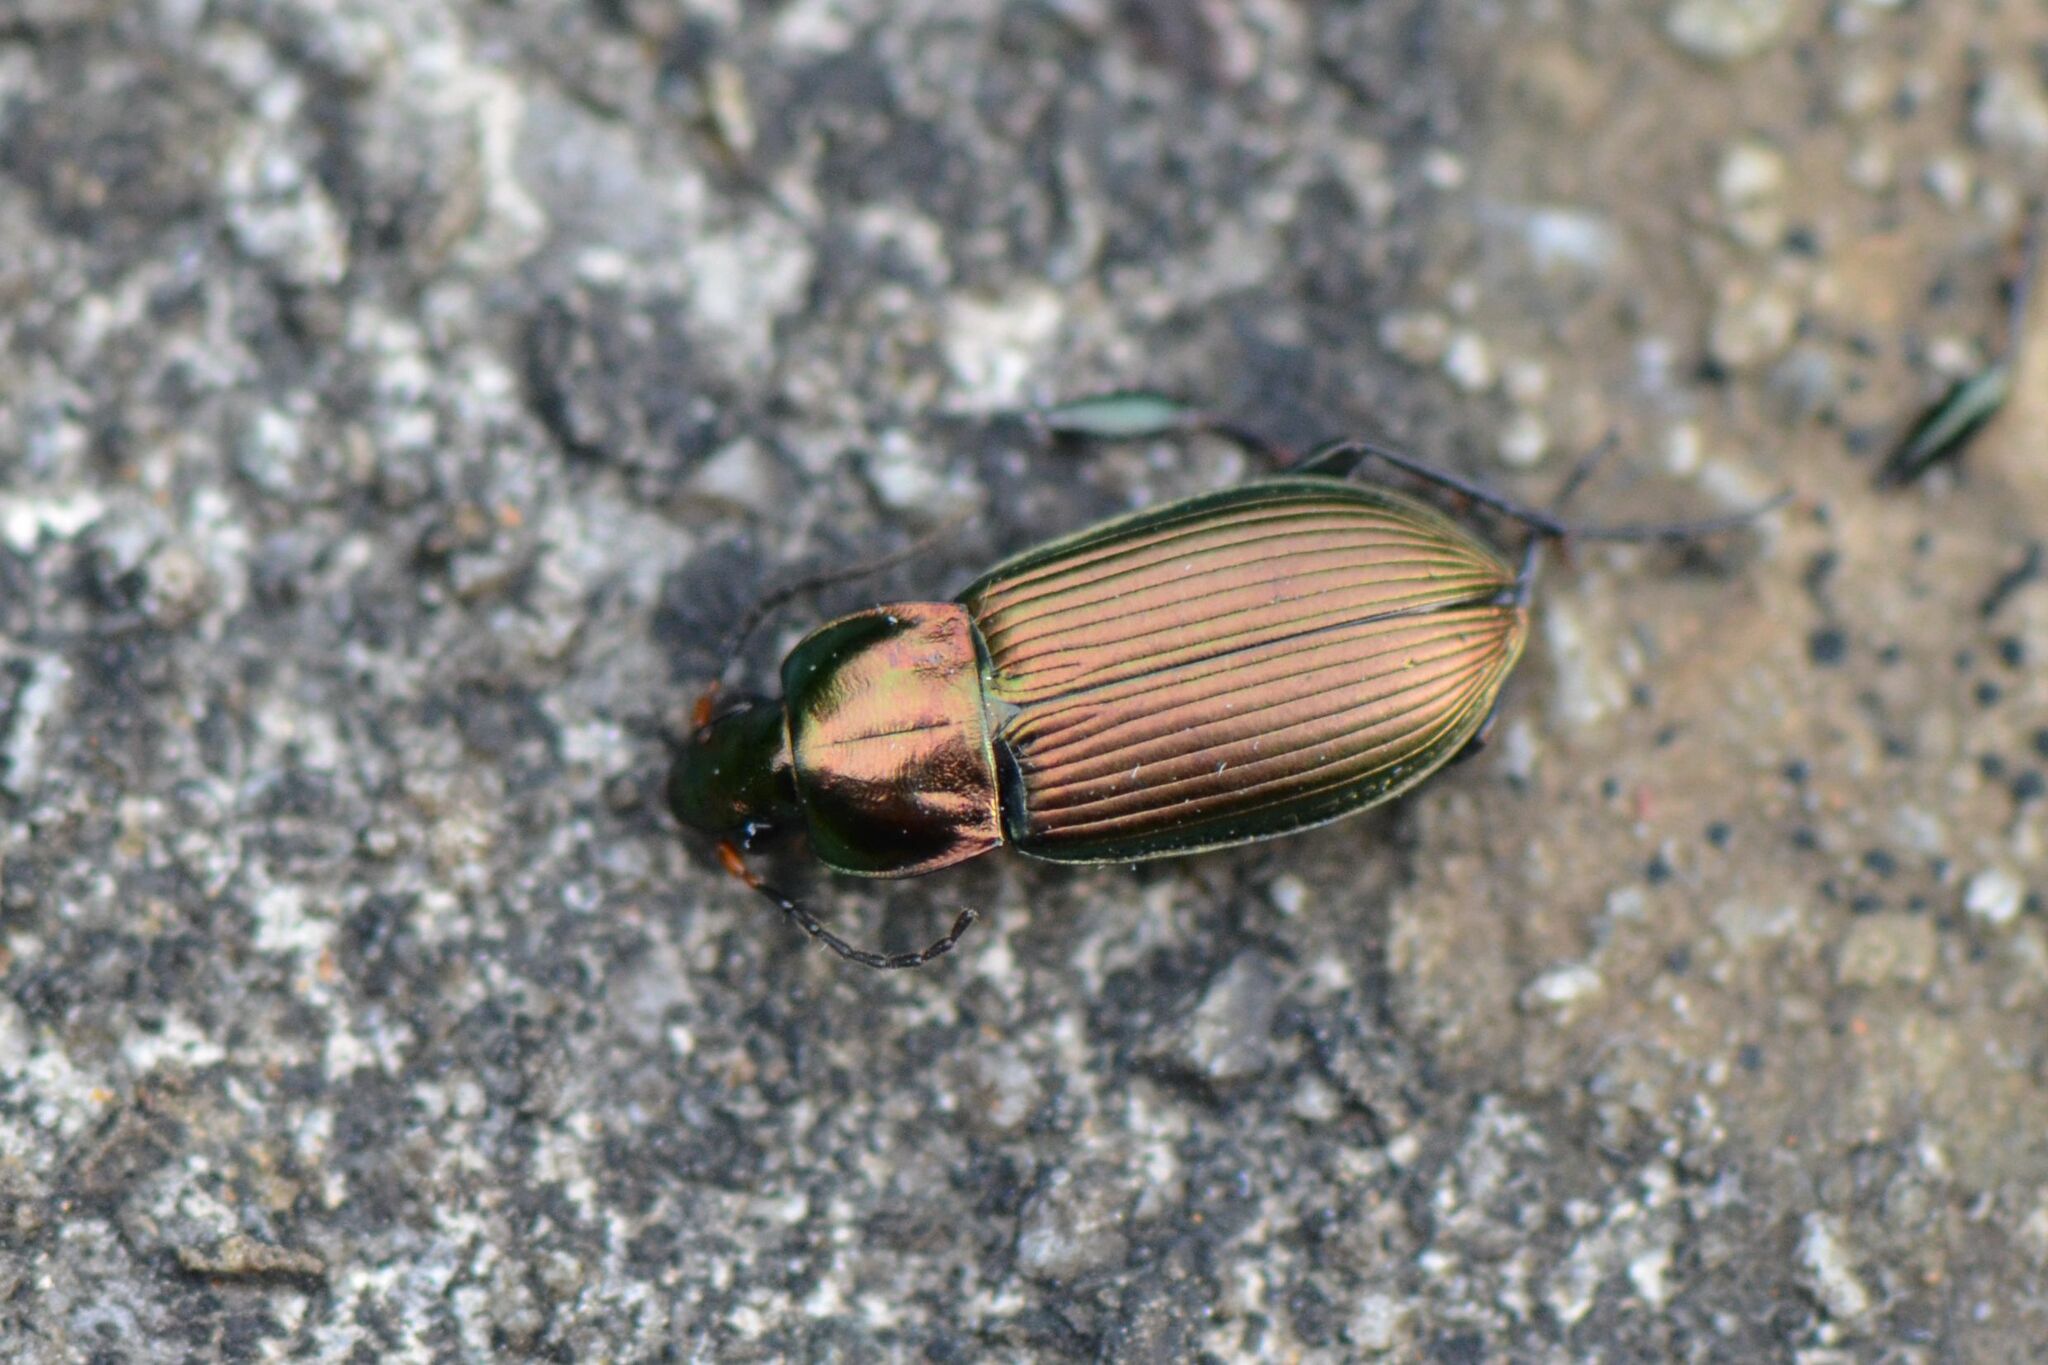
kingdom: Animalia
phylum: Arthropoda
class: Insecta
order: Coleoptera
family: Carabidae
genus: Poecilus
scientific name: Poecilus cupreus
